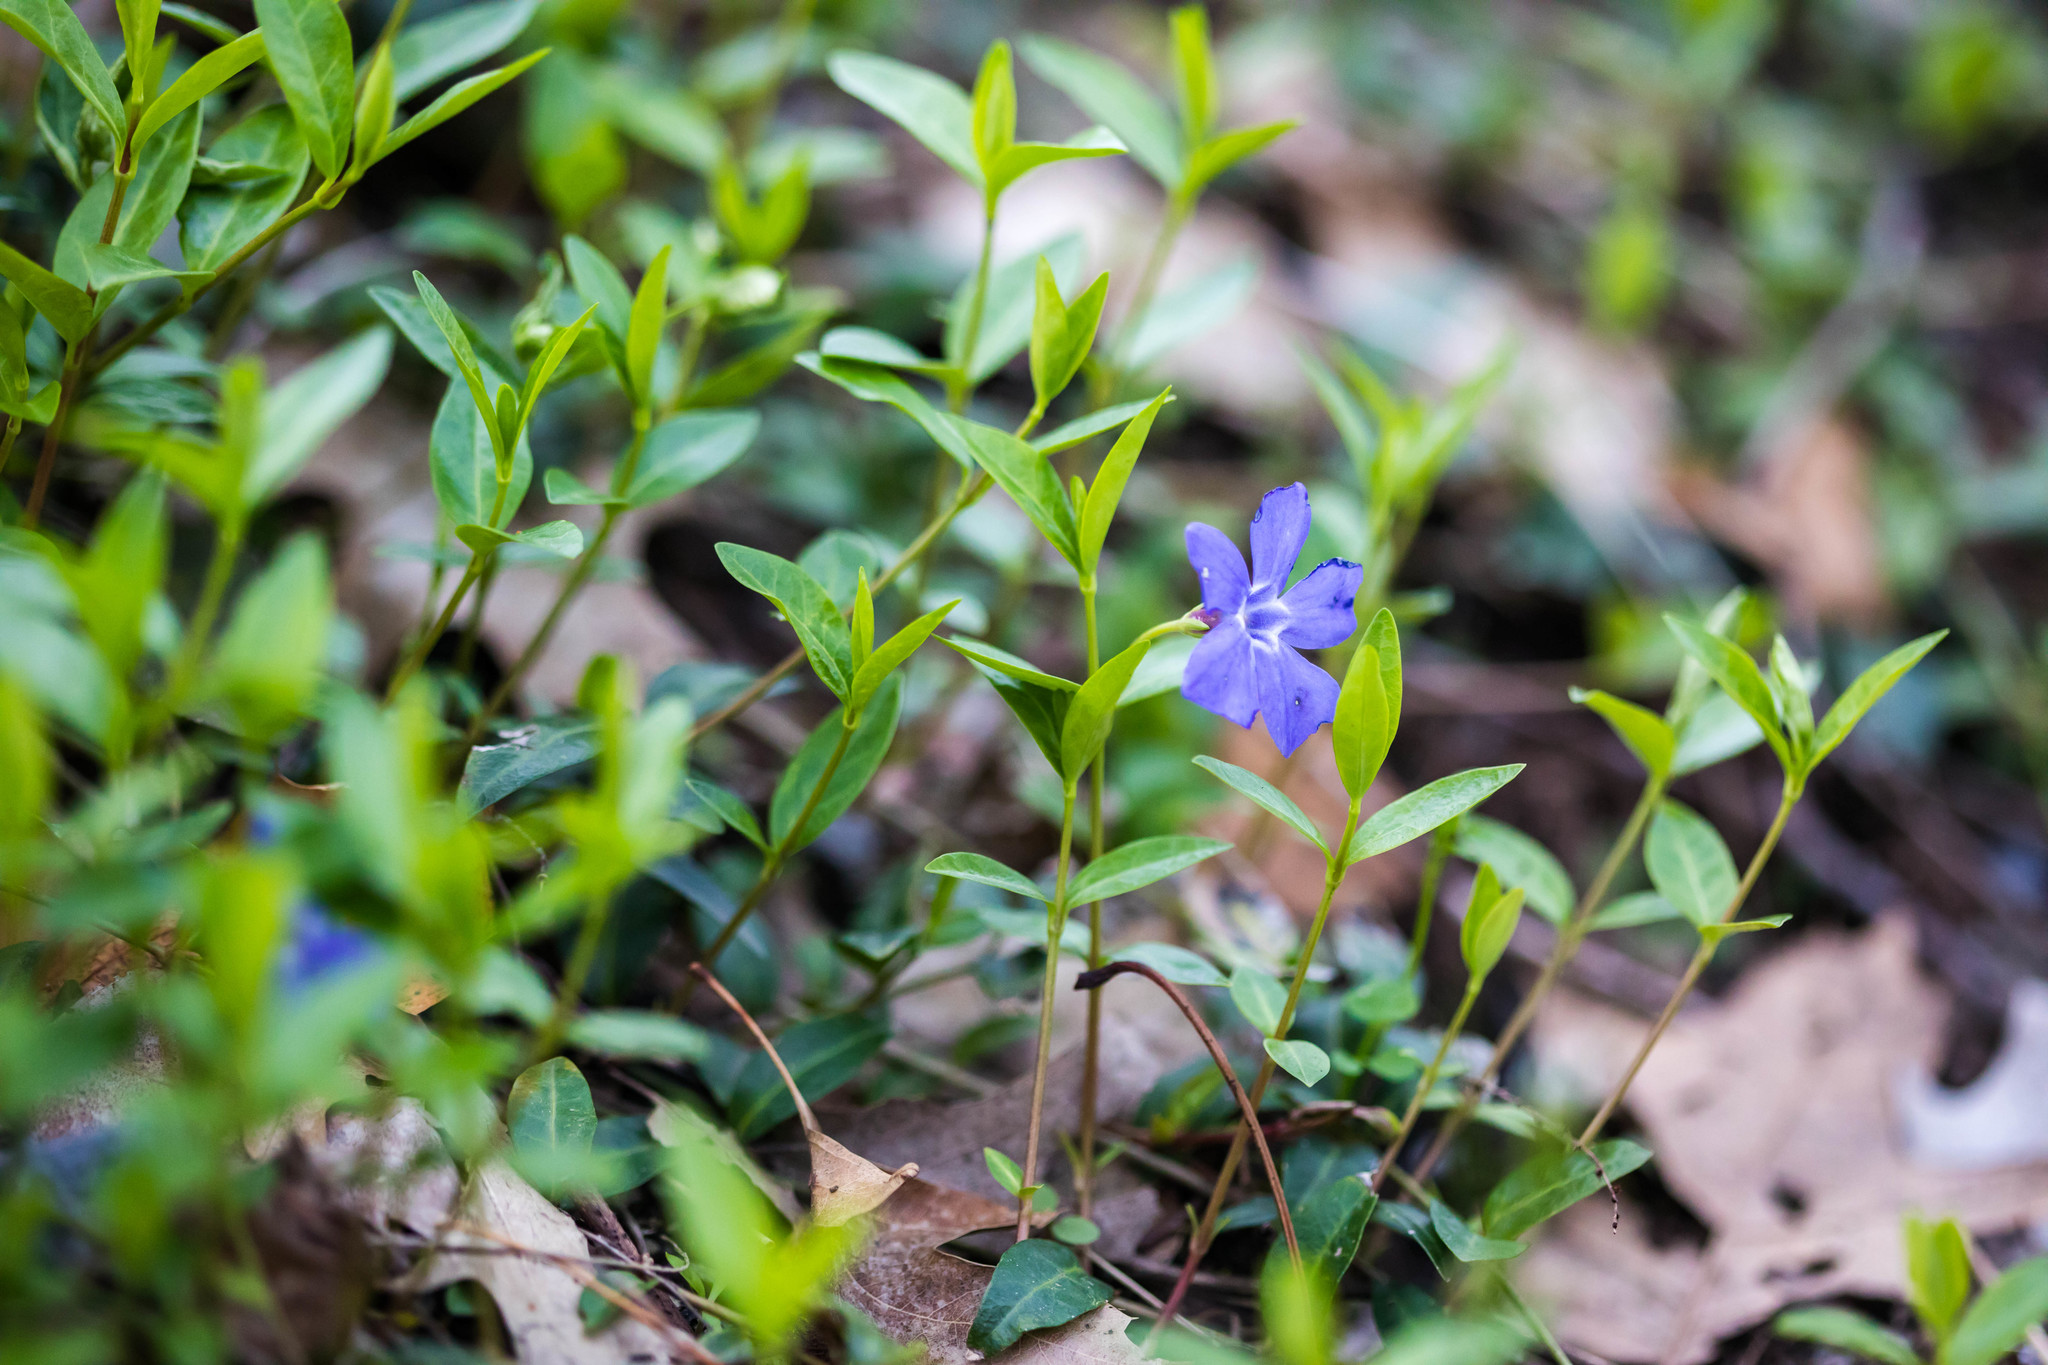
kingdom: Plantae
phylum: Tracheophyta
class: Magnoliopsida
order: Gentianales
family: Apocynaceae
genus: Vinca
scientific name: Vinca minor
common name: Lesser periwinkle
